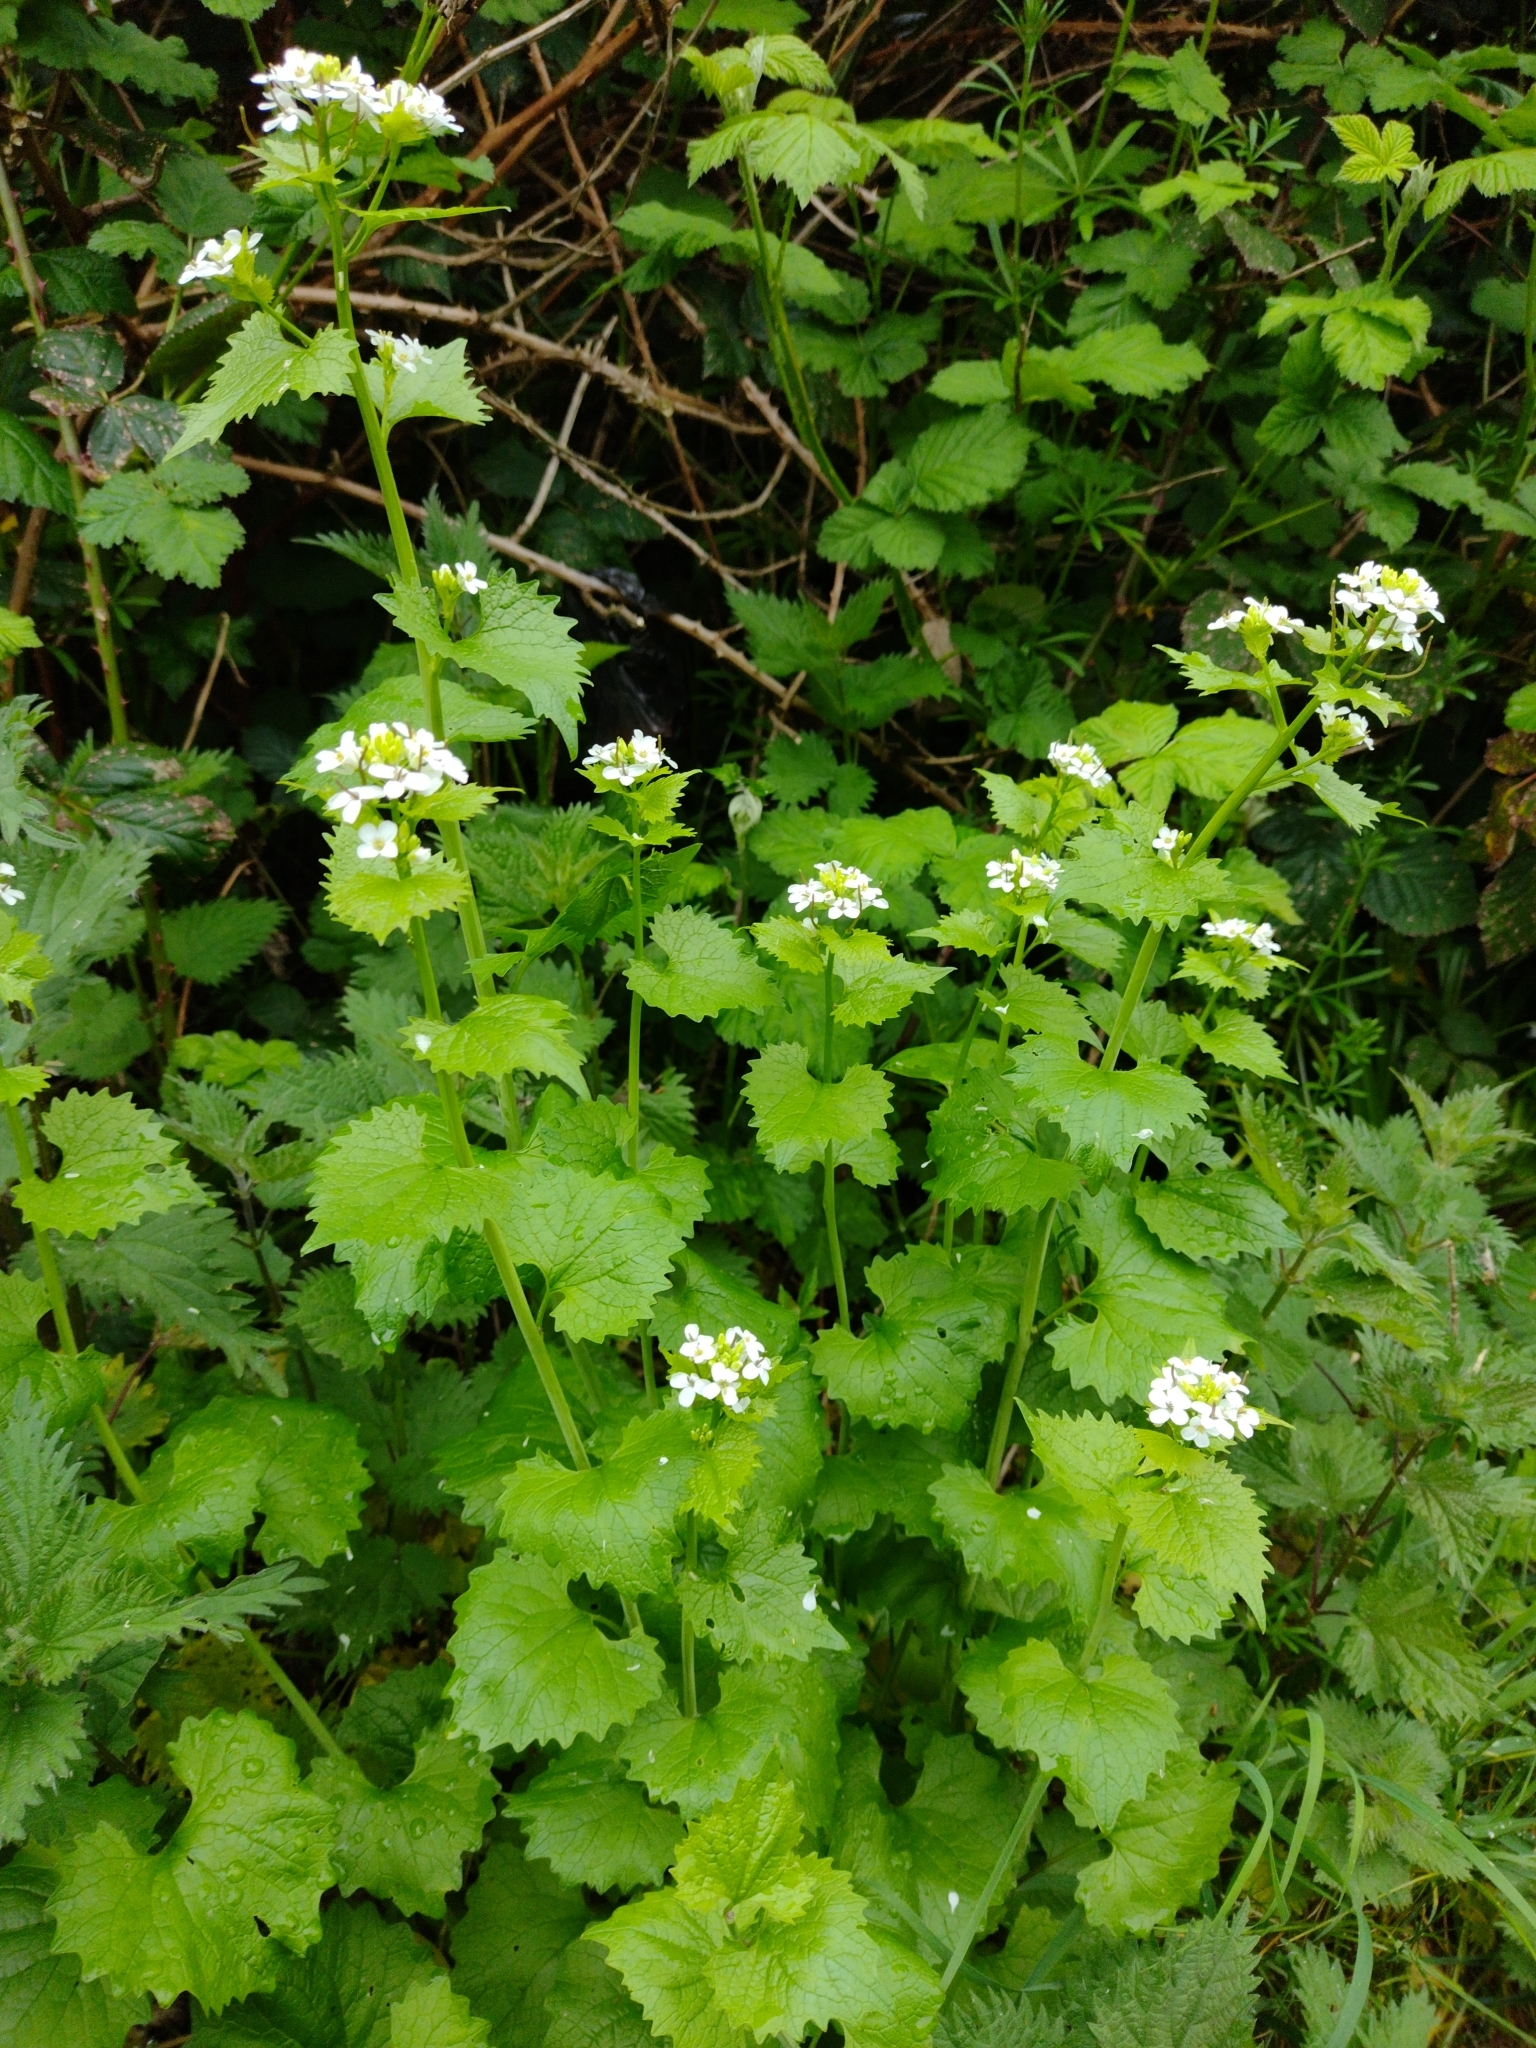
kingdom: Plantae
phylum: Tracheophyta
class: Magnoliopsida
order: Brassicales
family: Brassicaceae
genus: Alliaria
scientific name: Alliaria petiolata
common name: Garlic mustard
